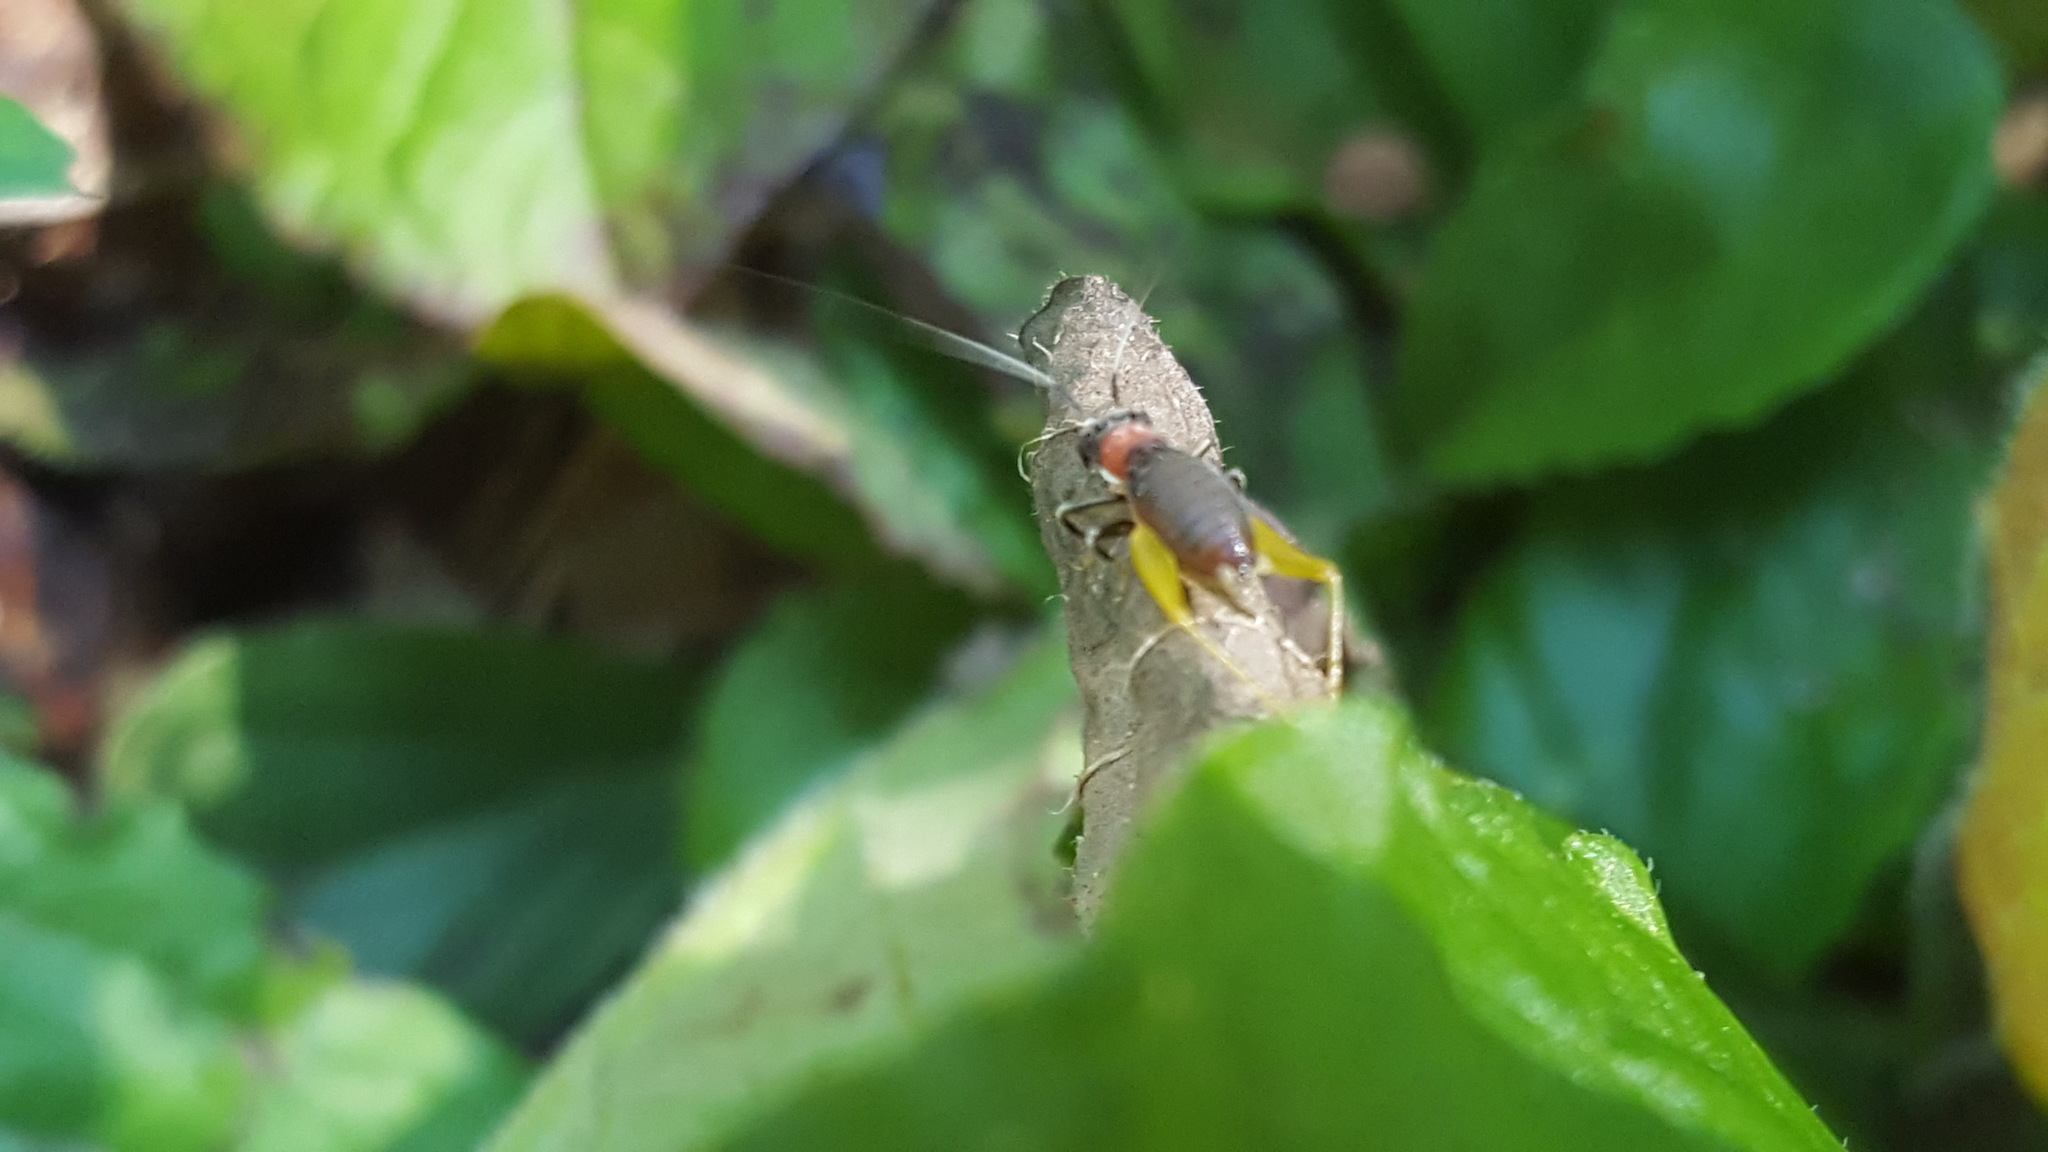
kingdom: Animalia
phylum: Arthropoda
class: Insecta
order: Orthoptera
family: Trigonidiidae
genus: Phyllopalpus
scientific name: Phyllopalpus pulchellus
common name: Handsome trig
